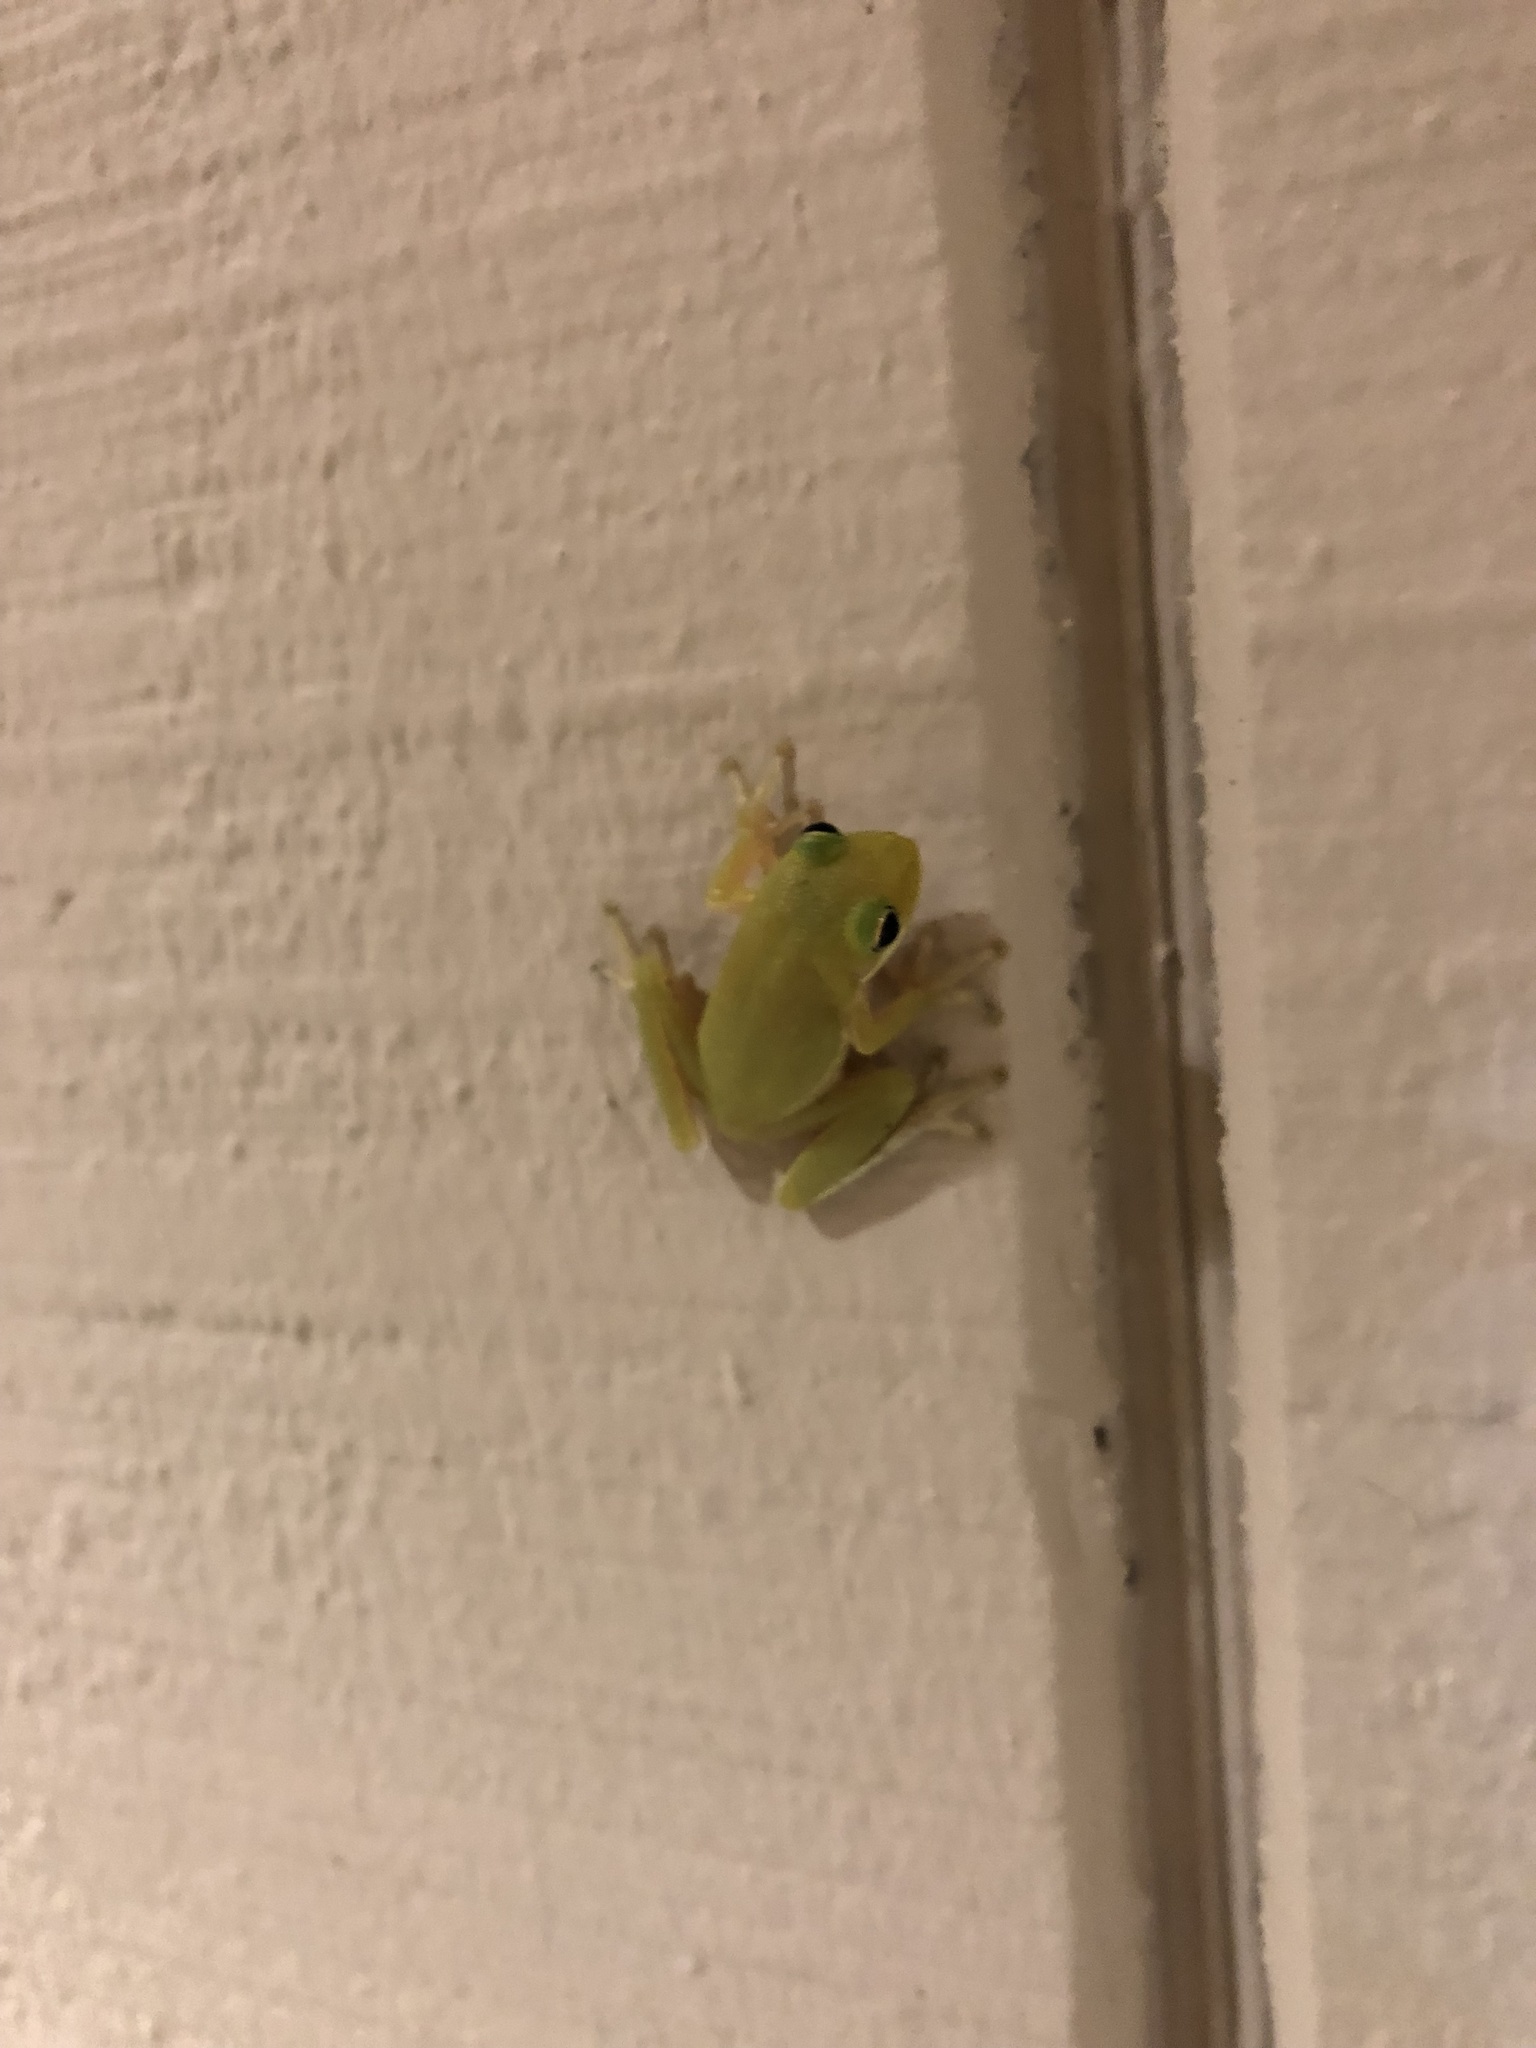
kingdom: Animalia
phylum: Chordata
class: Amphibia
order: Anura
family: Hylidae
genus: Dryophytes
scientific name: Dryophytes squirellus
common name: Squirrel treefrog
